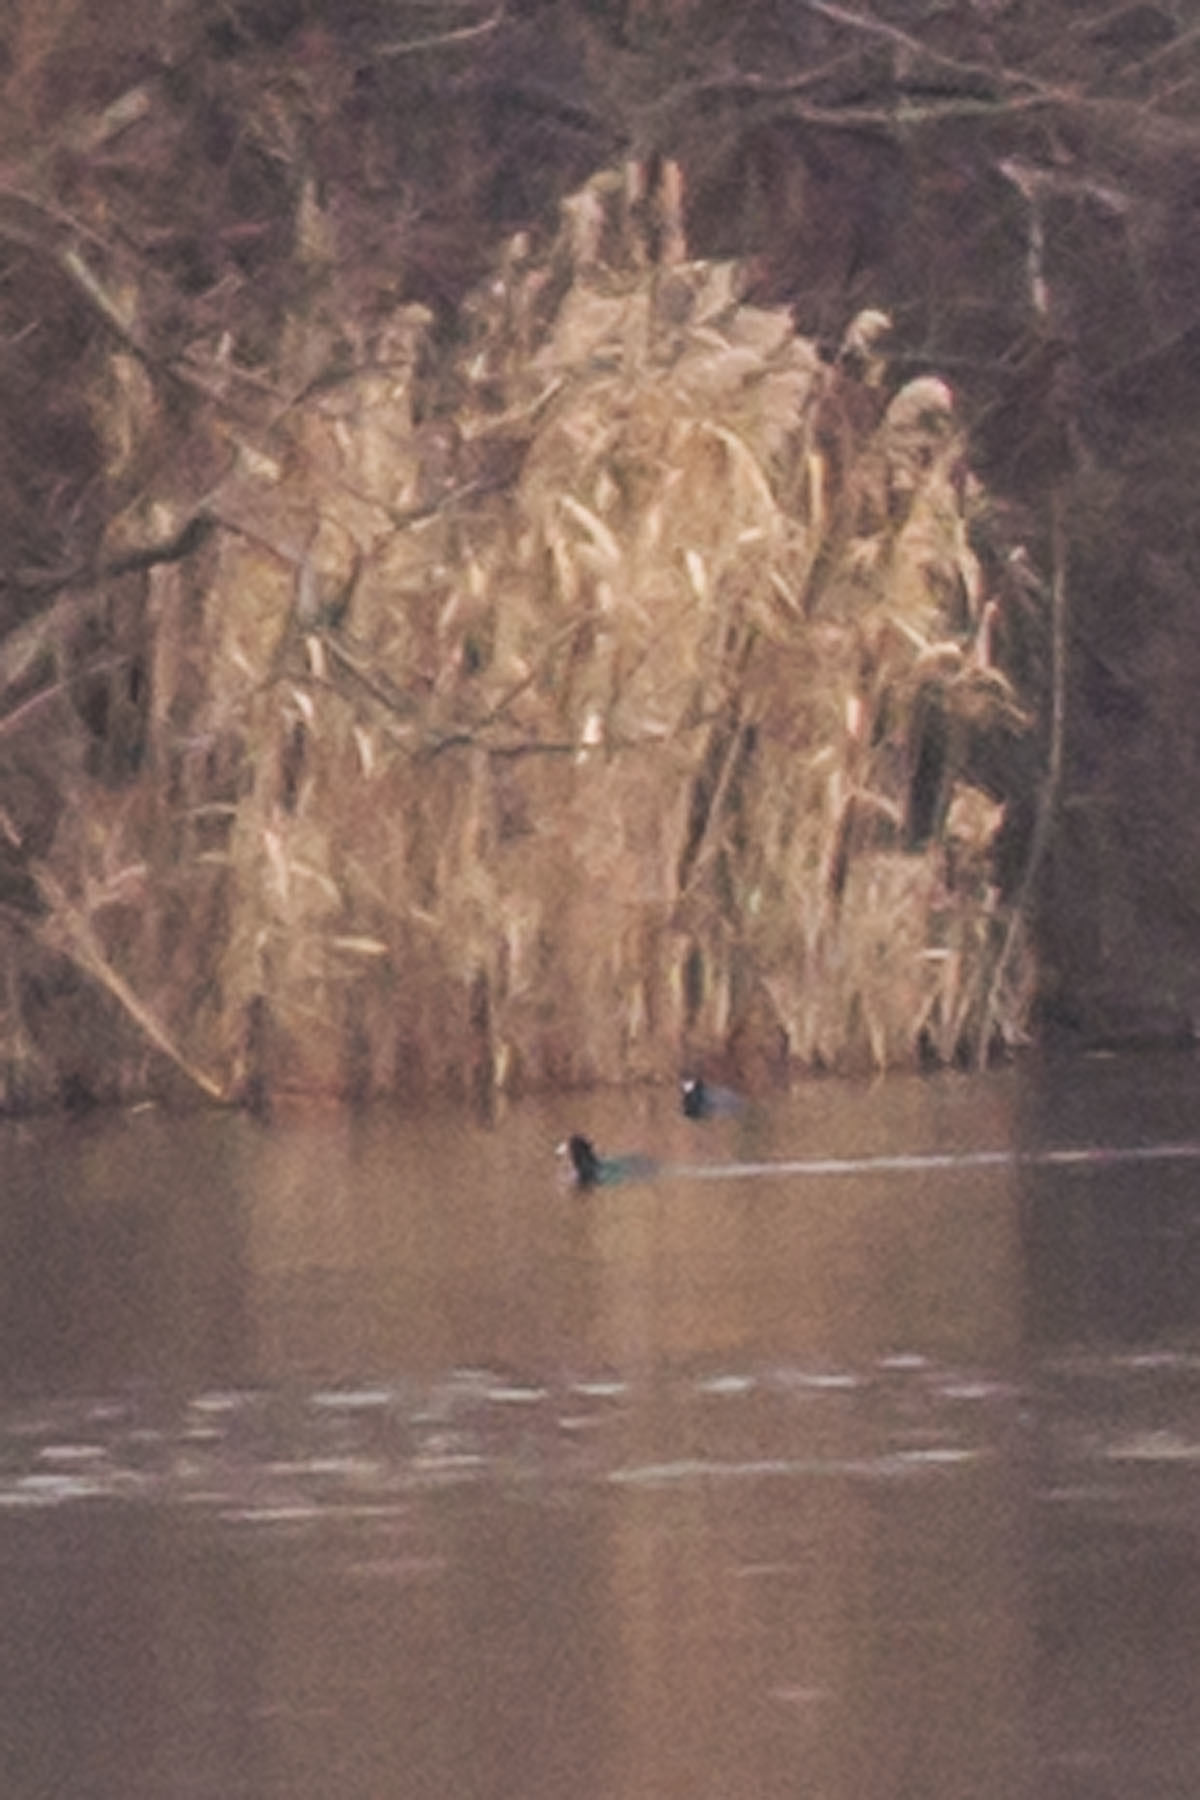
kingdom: Animalia
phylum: Chordata
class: Aves
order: Gruiformes
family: Rallidae
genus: Fulica
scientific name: Fulica americana
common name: American coot
